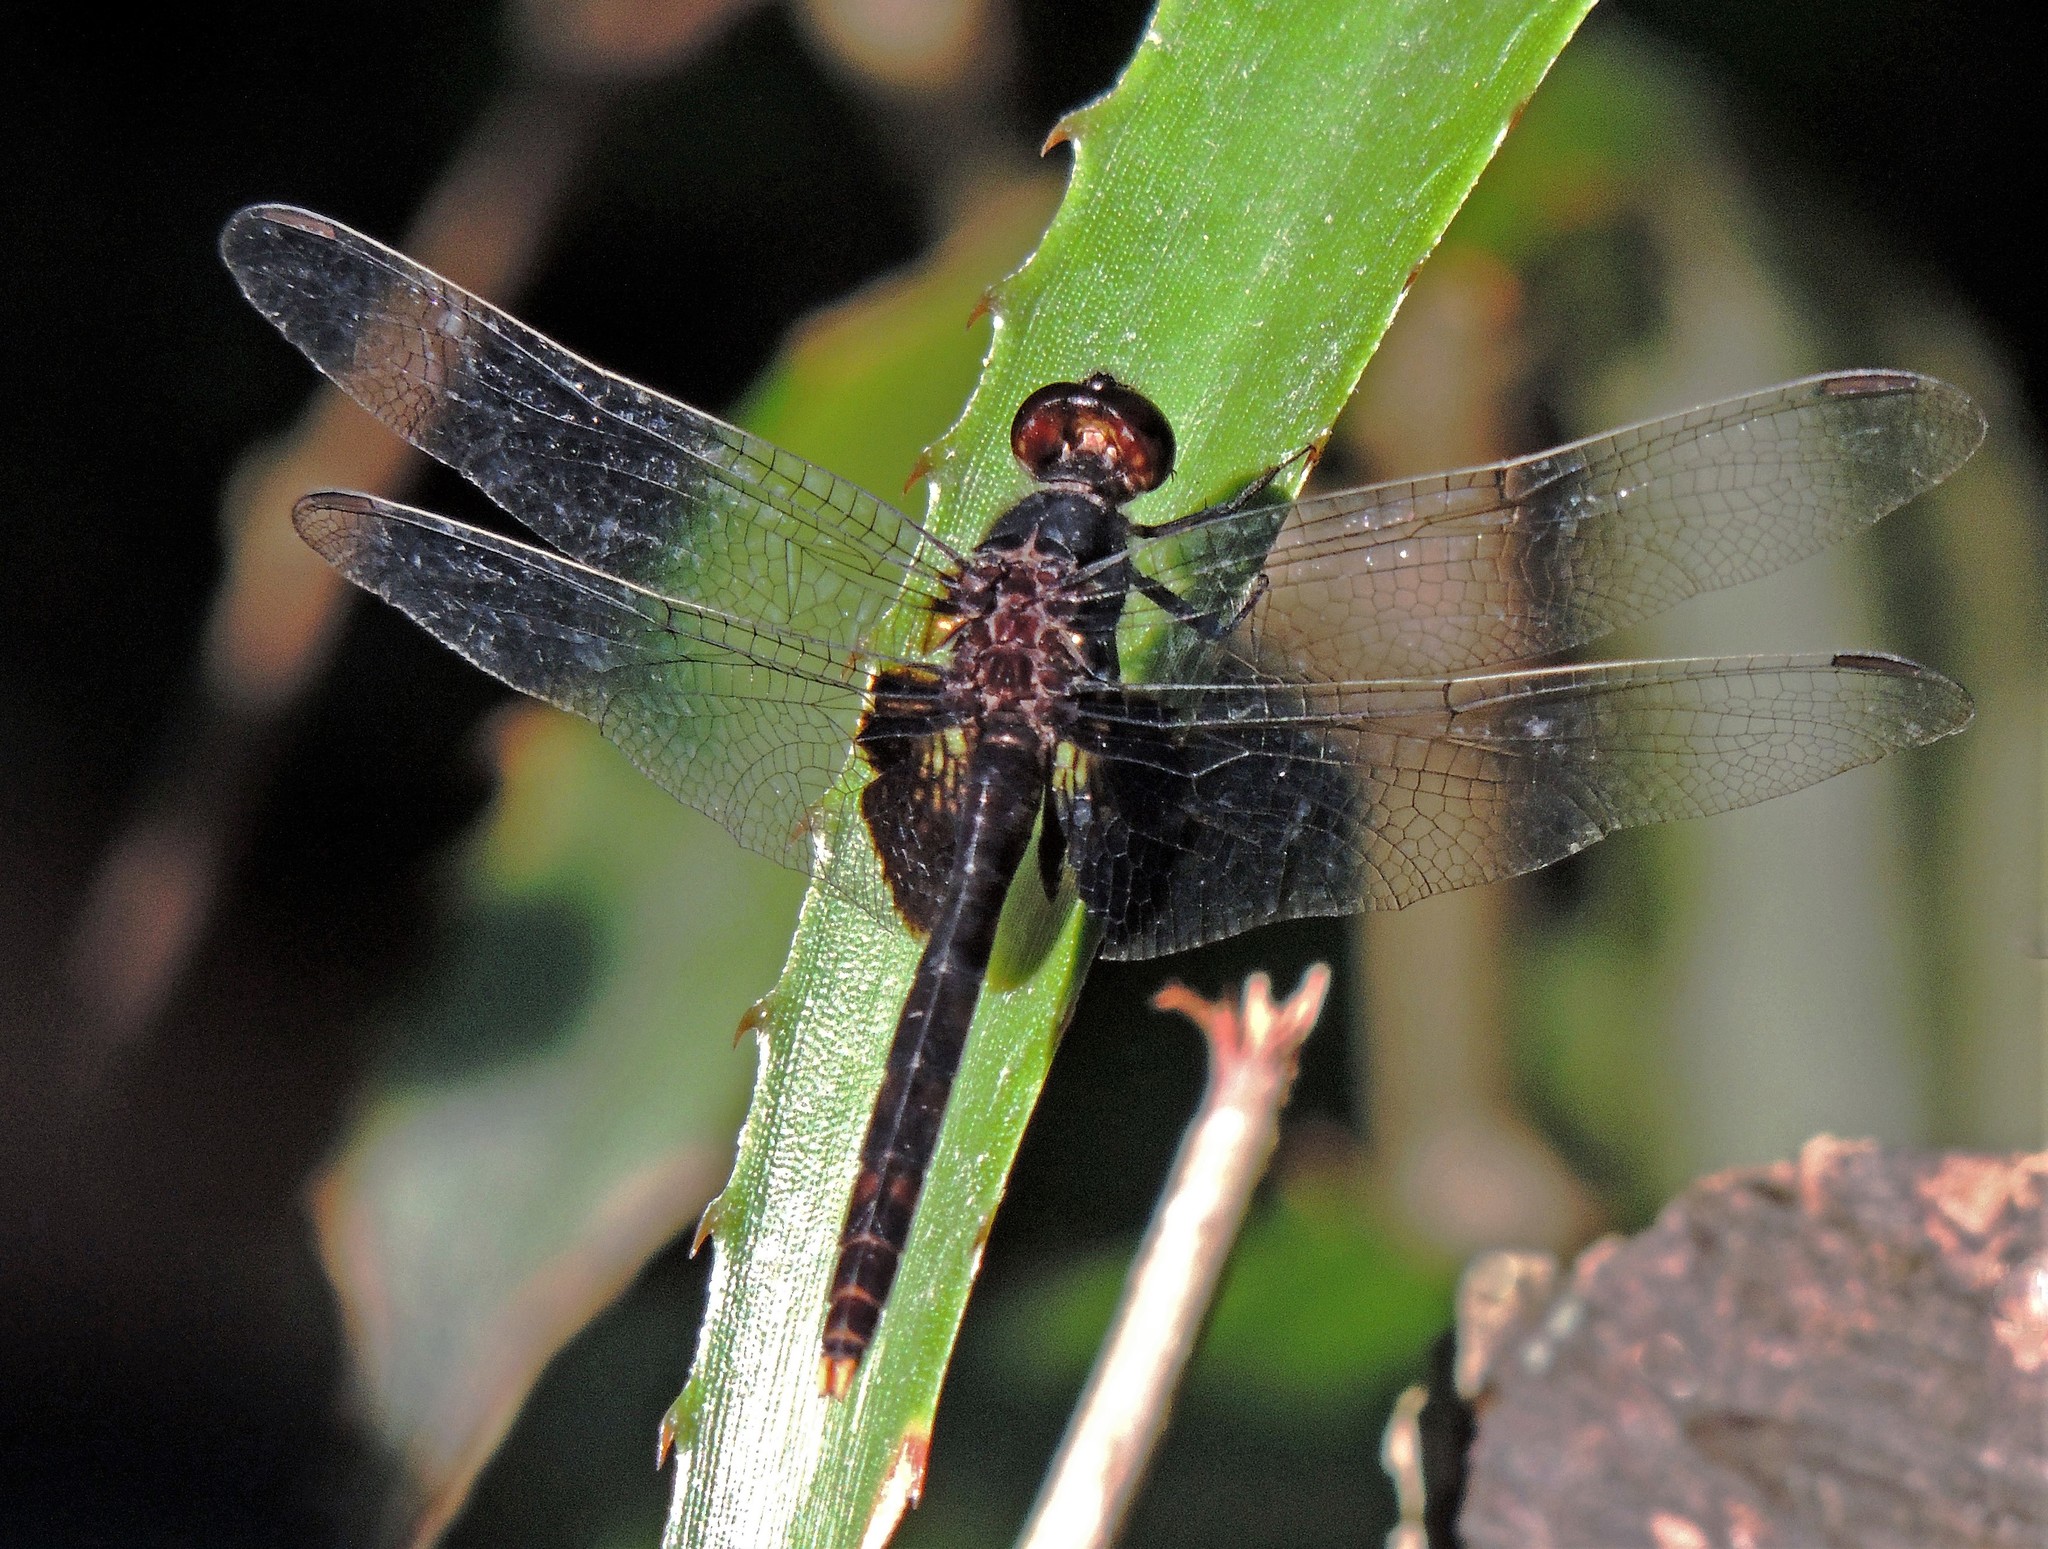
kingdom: Animalia
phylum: Arthropoda
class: Insecta
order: Odonata
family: Libellulidae
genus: Erythemis
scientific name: Erythemis attala
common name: Black pondhawk
